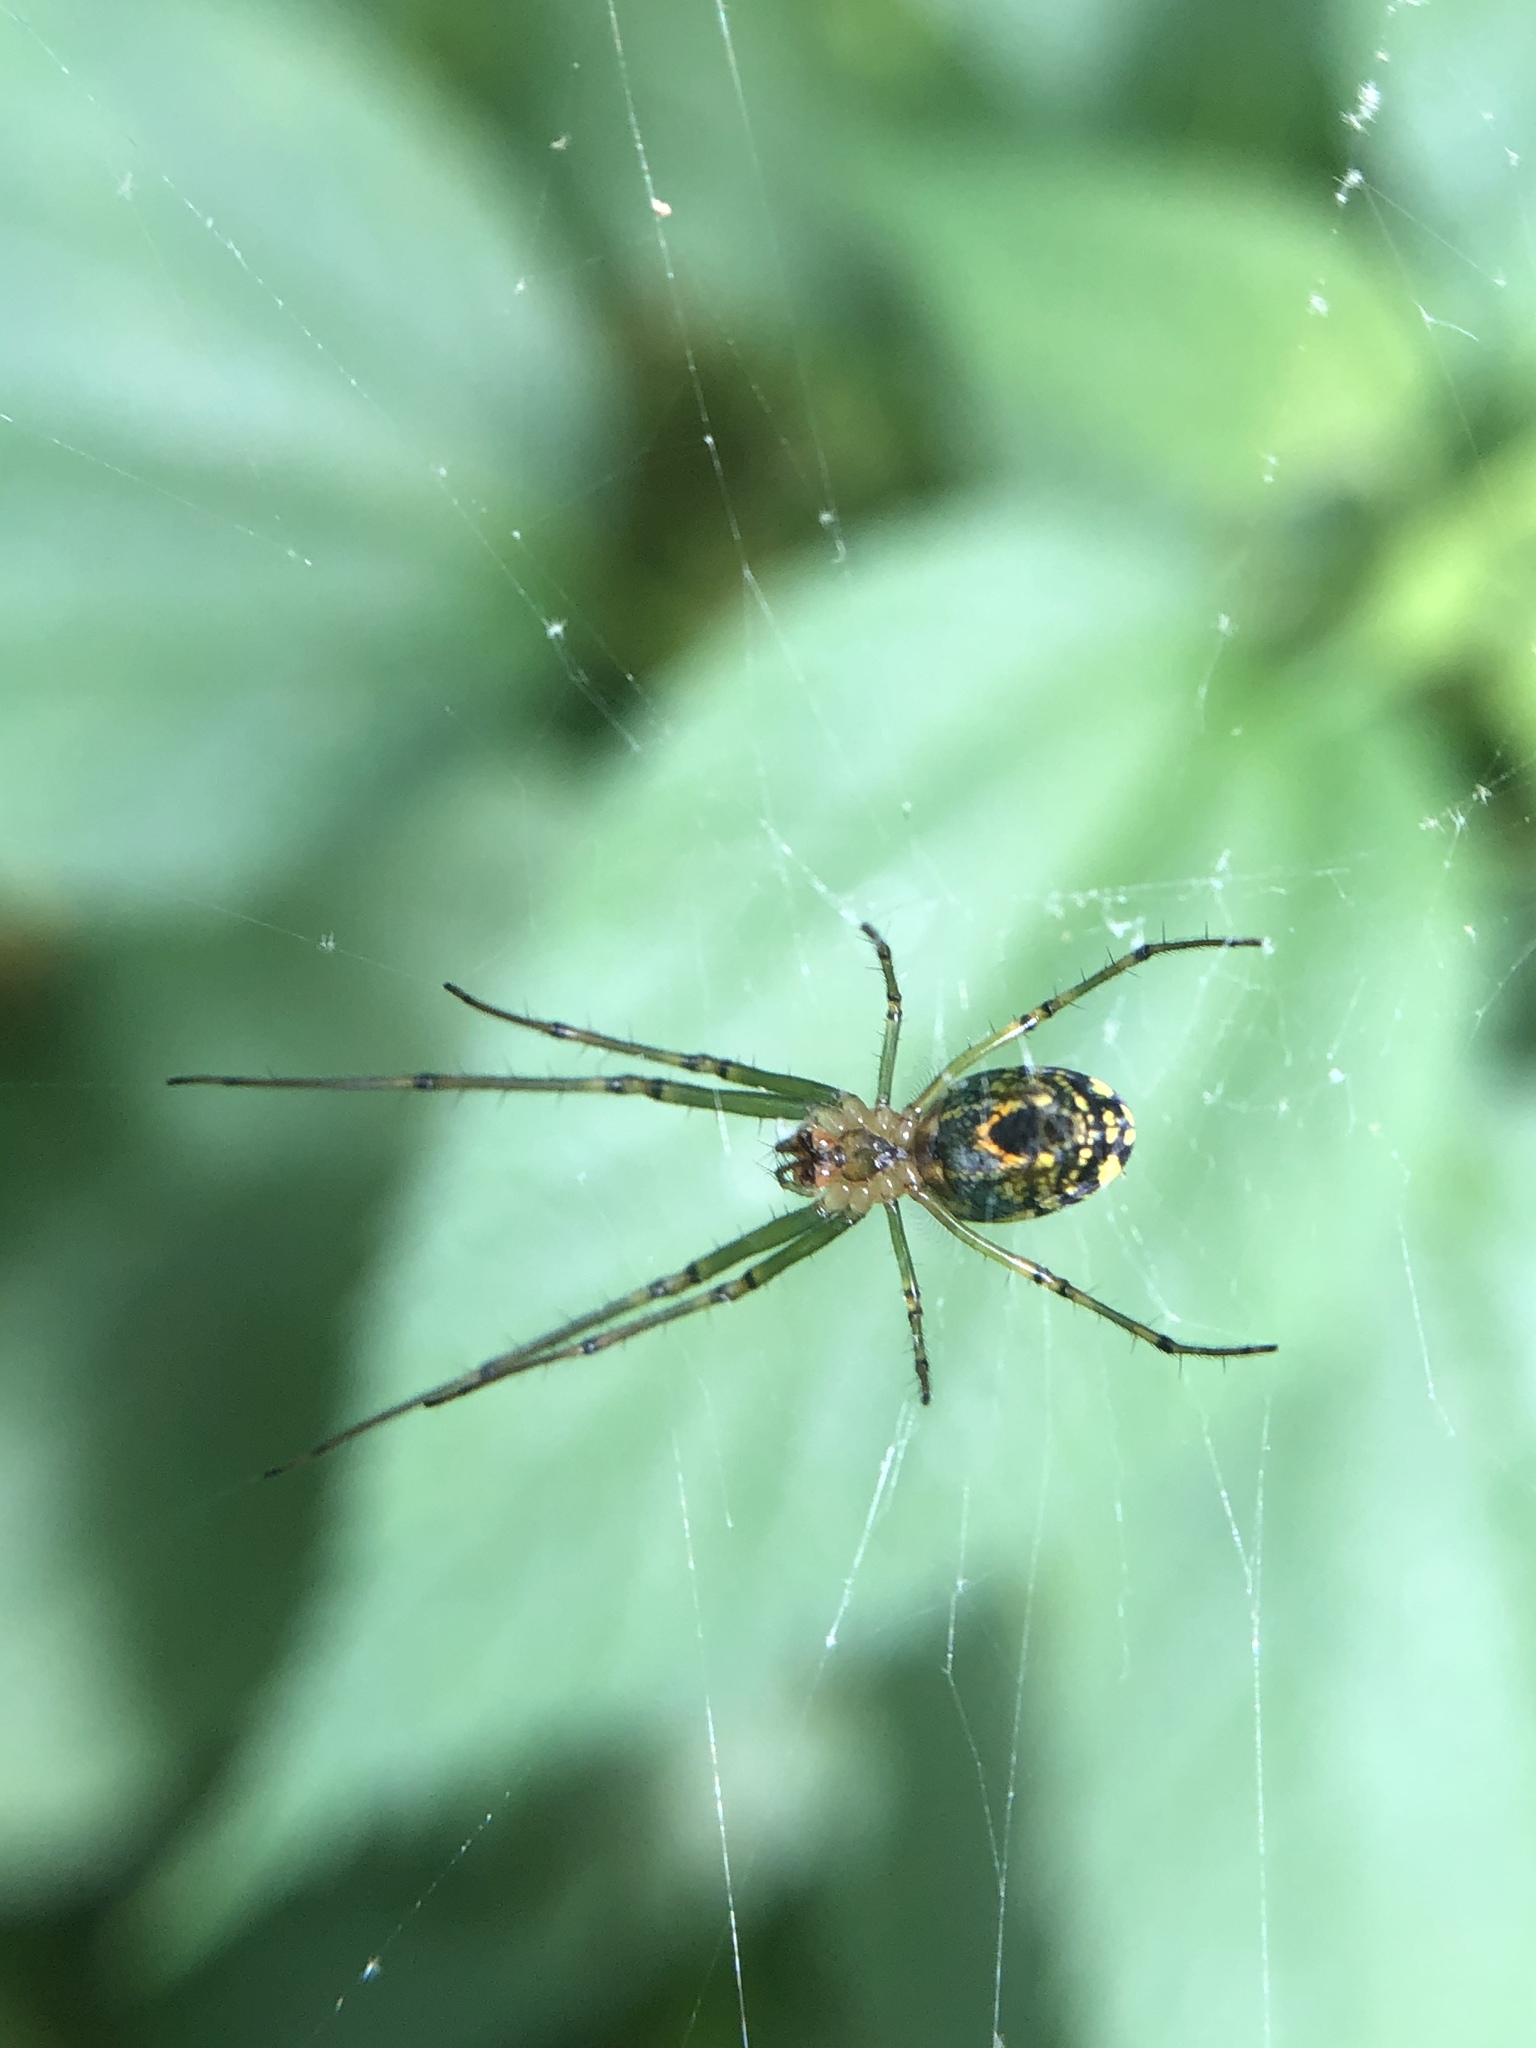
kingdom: Animalia
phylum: Arthropoda
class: Arachnida
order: Araneae
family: Tetragnathidae
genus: Leucauge
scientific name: Leucauge venusta
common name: Longjawed orb weavers
